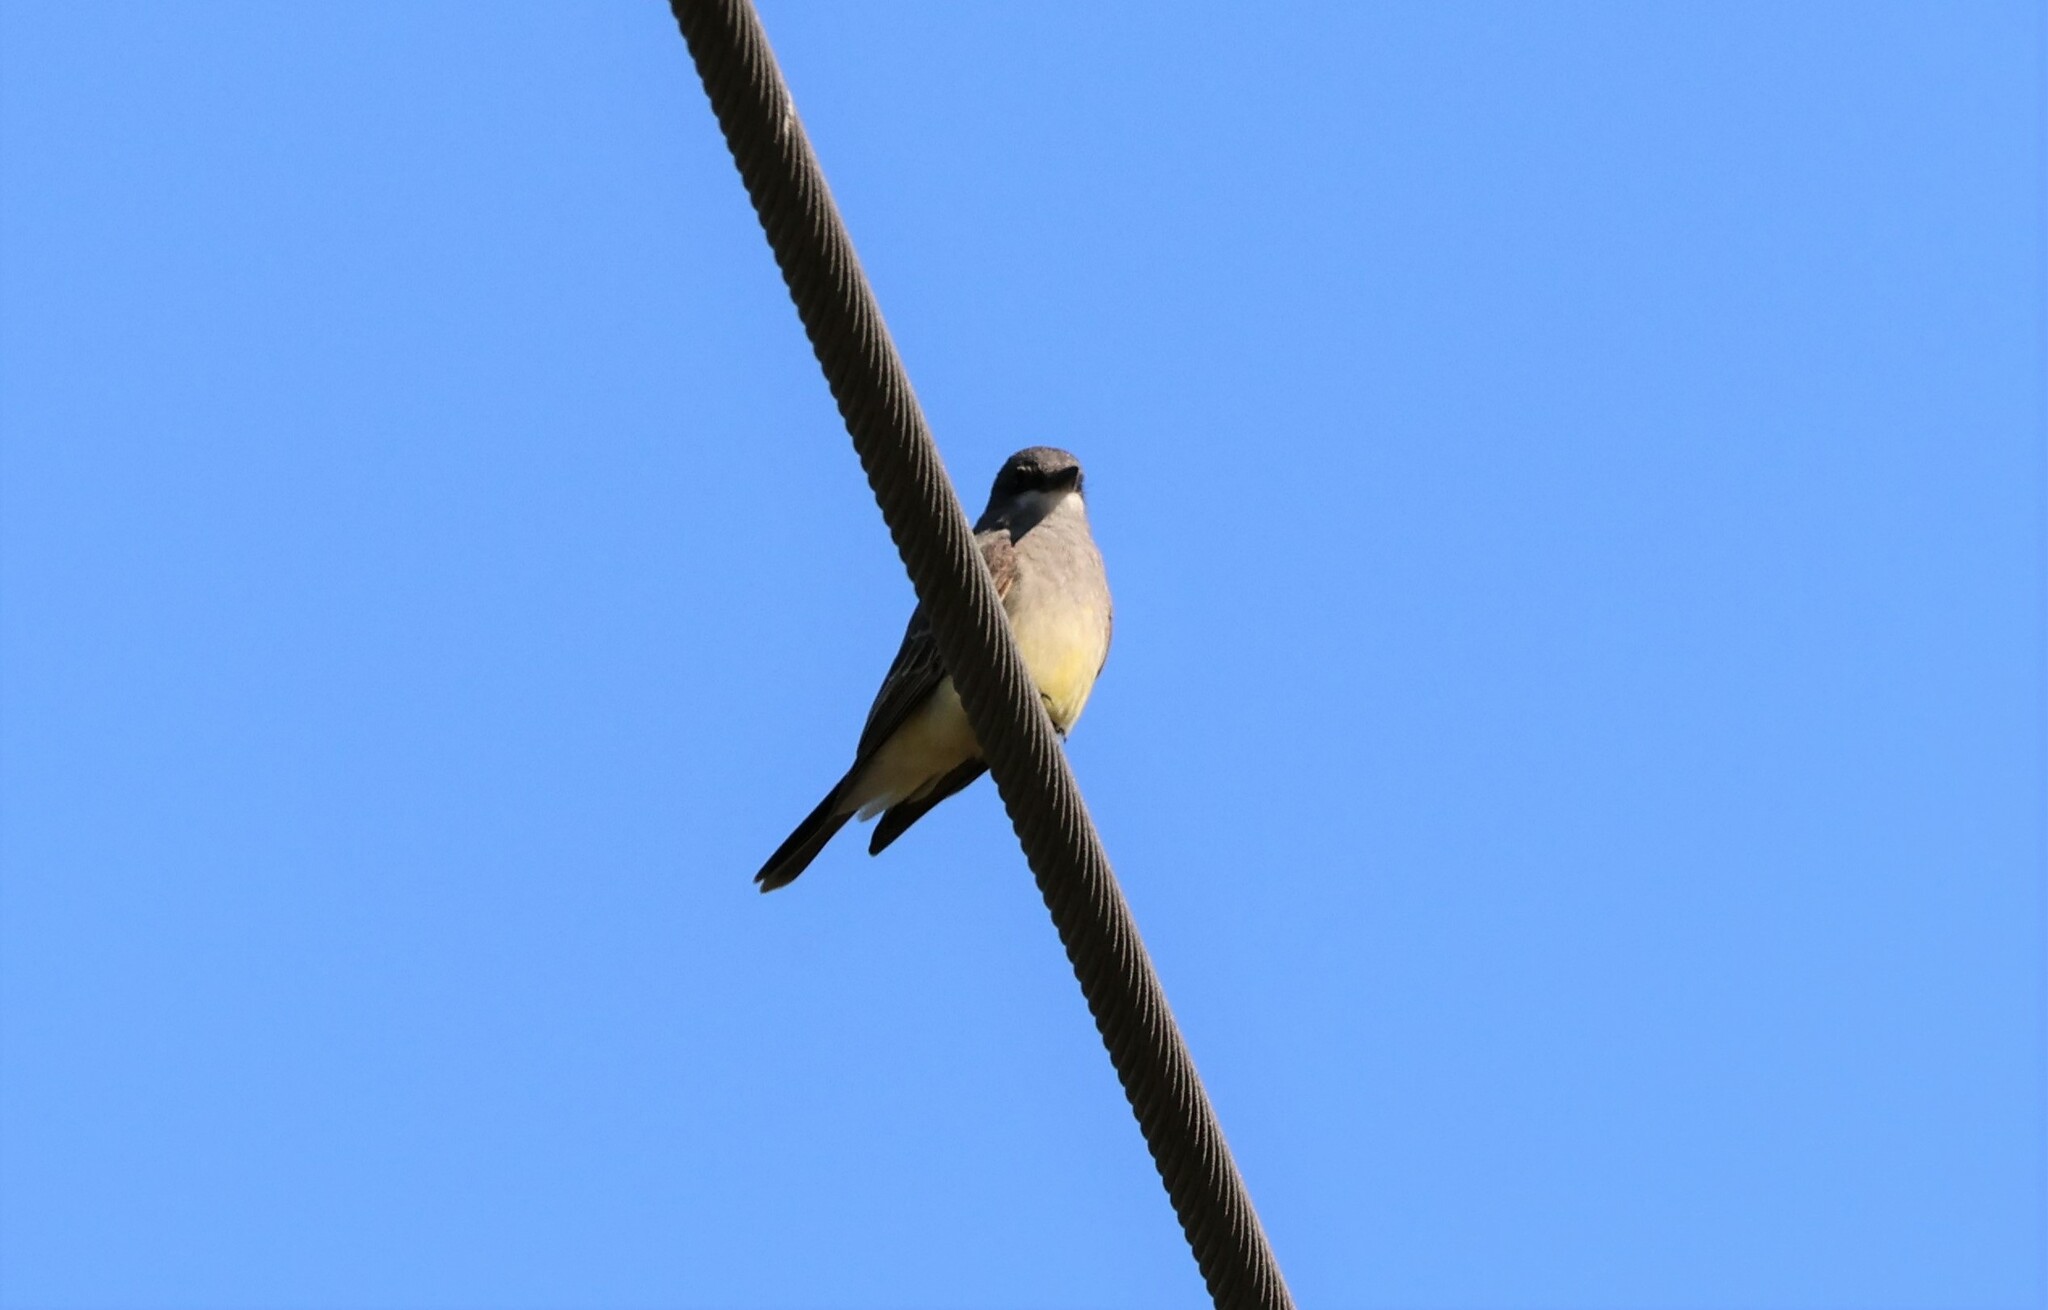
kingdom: Animalia
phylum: Chordata
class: Aves
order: Passeriformes
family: Tyrannidae
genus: Tyrannus
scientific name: Tyrannus vociferans
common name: Cassin's kingbird
